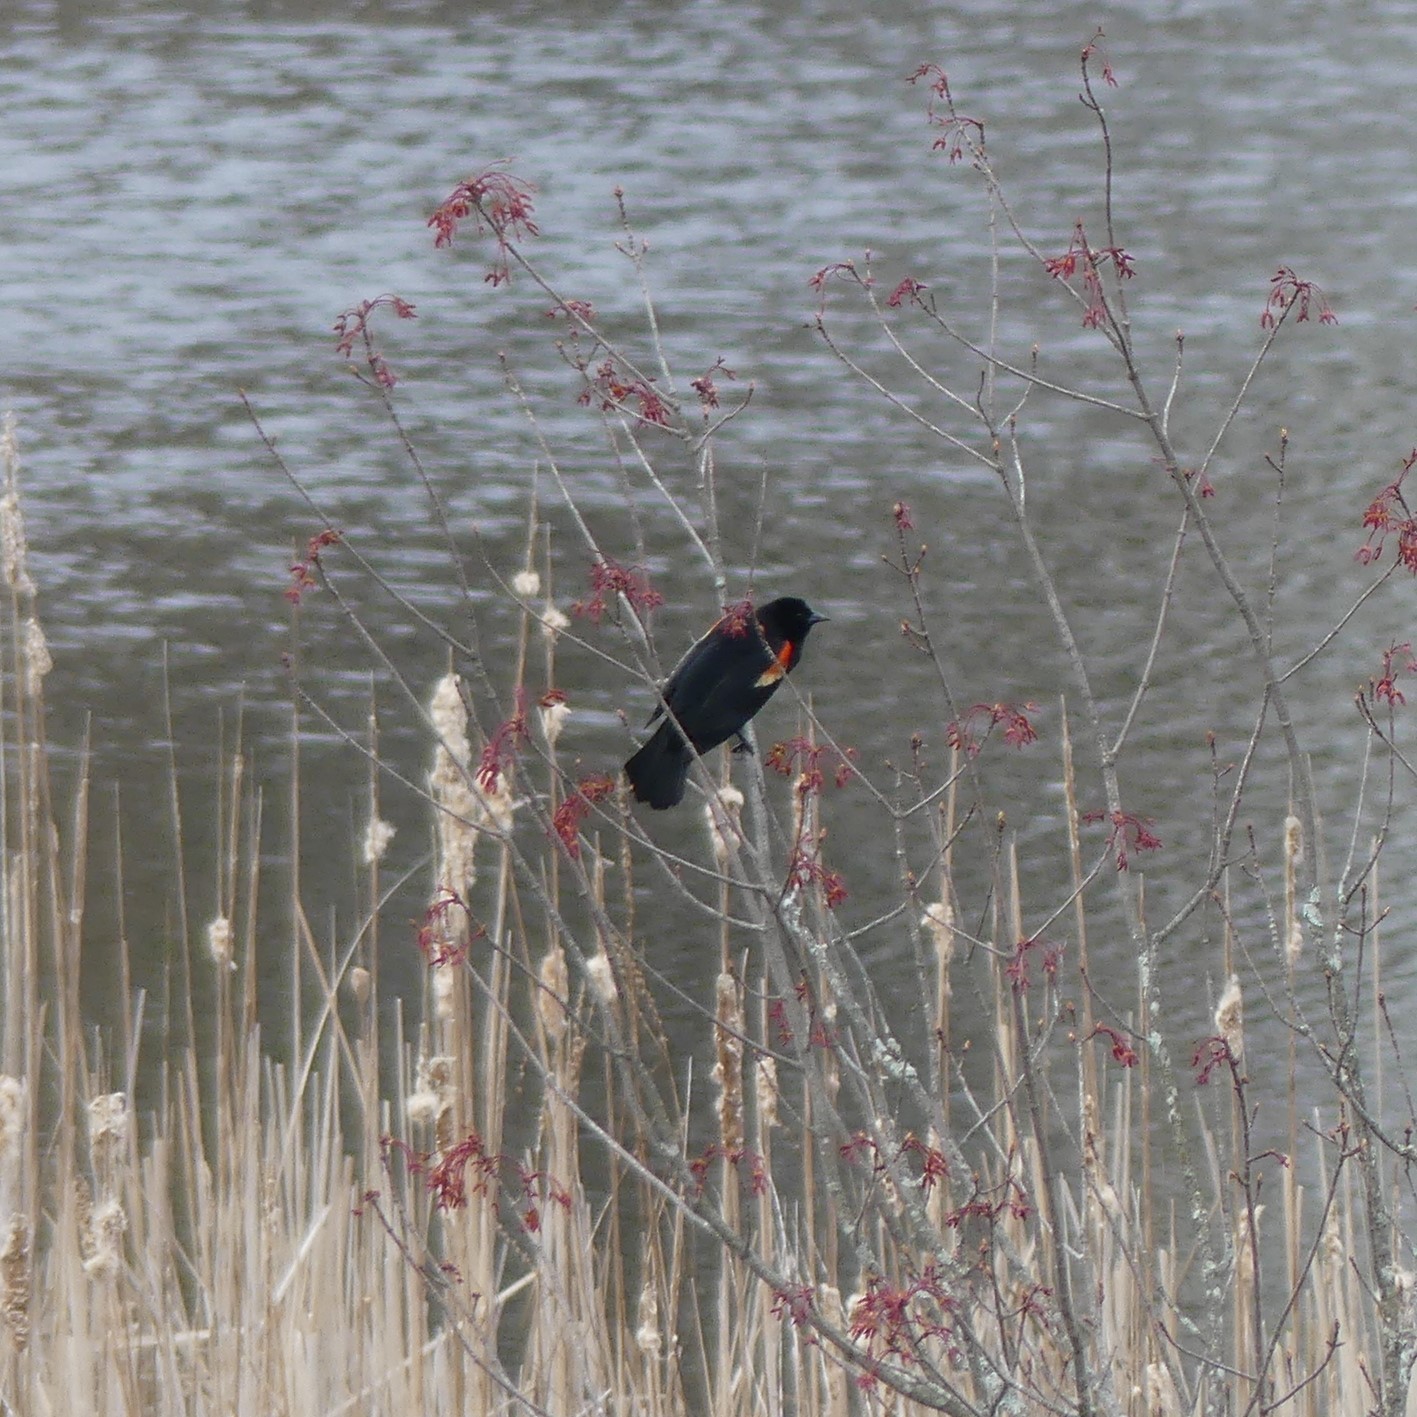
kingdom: Animalia
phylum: Chordata
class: Aves
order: Passeriformes
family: Icteridae
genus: Agelaius
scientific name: Agelaius phoeniceus
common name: Red-winged blackbird
